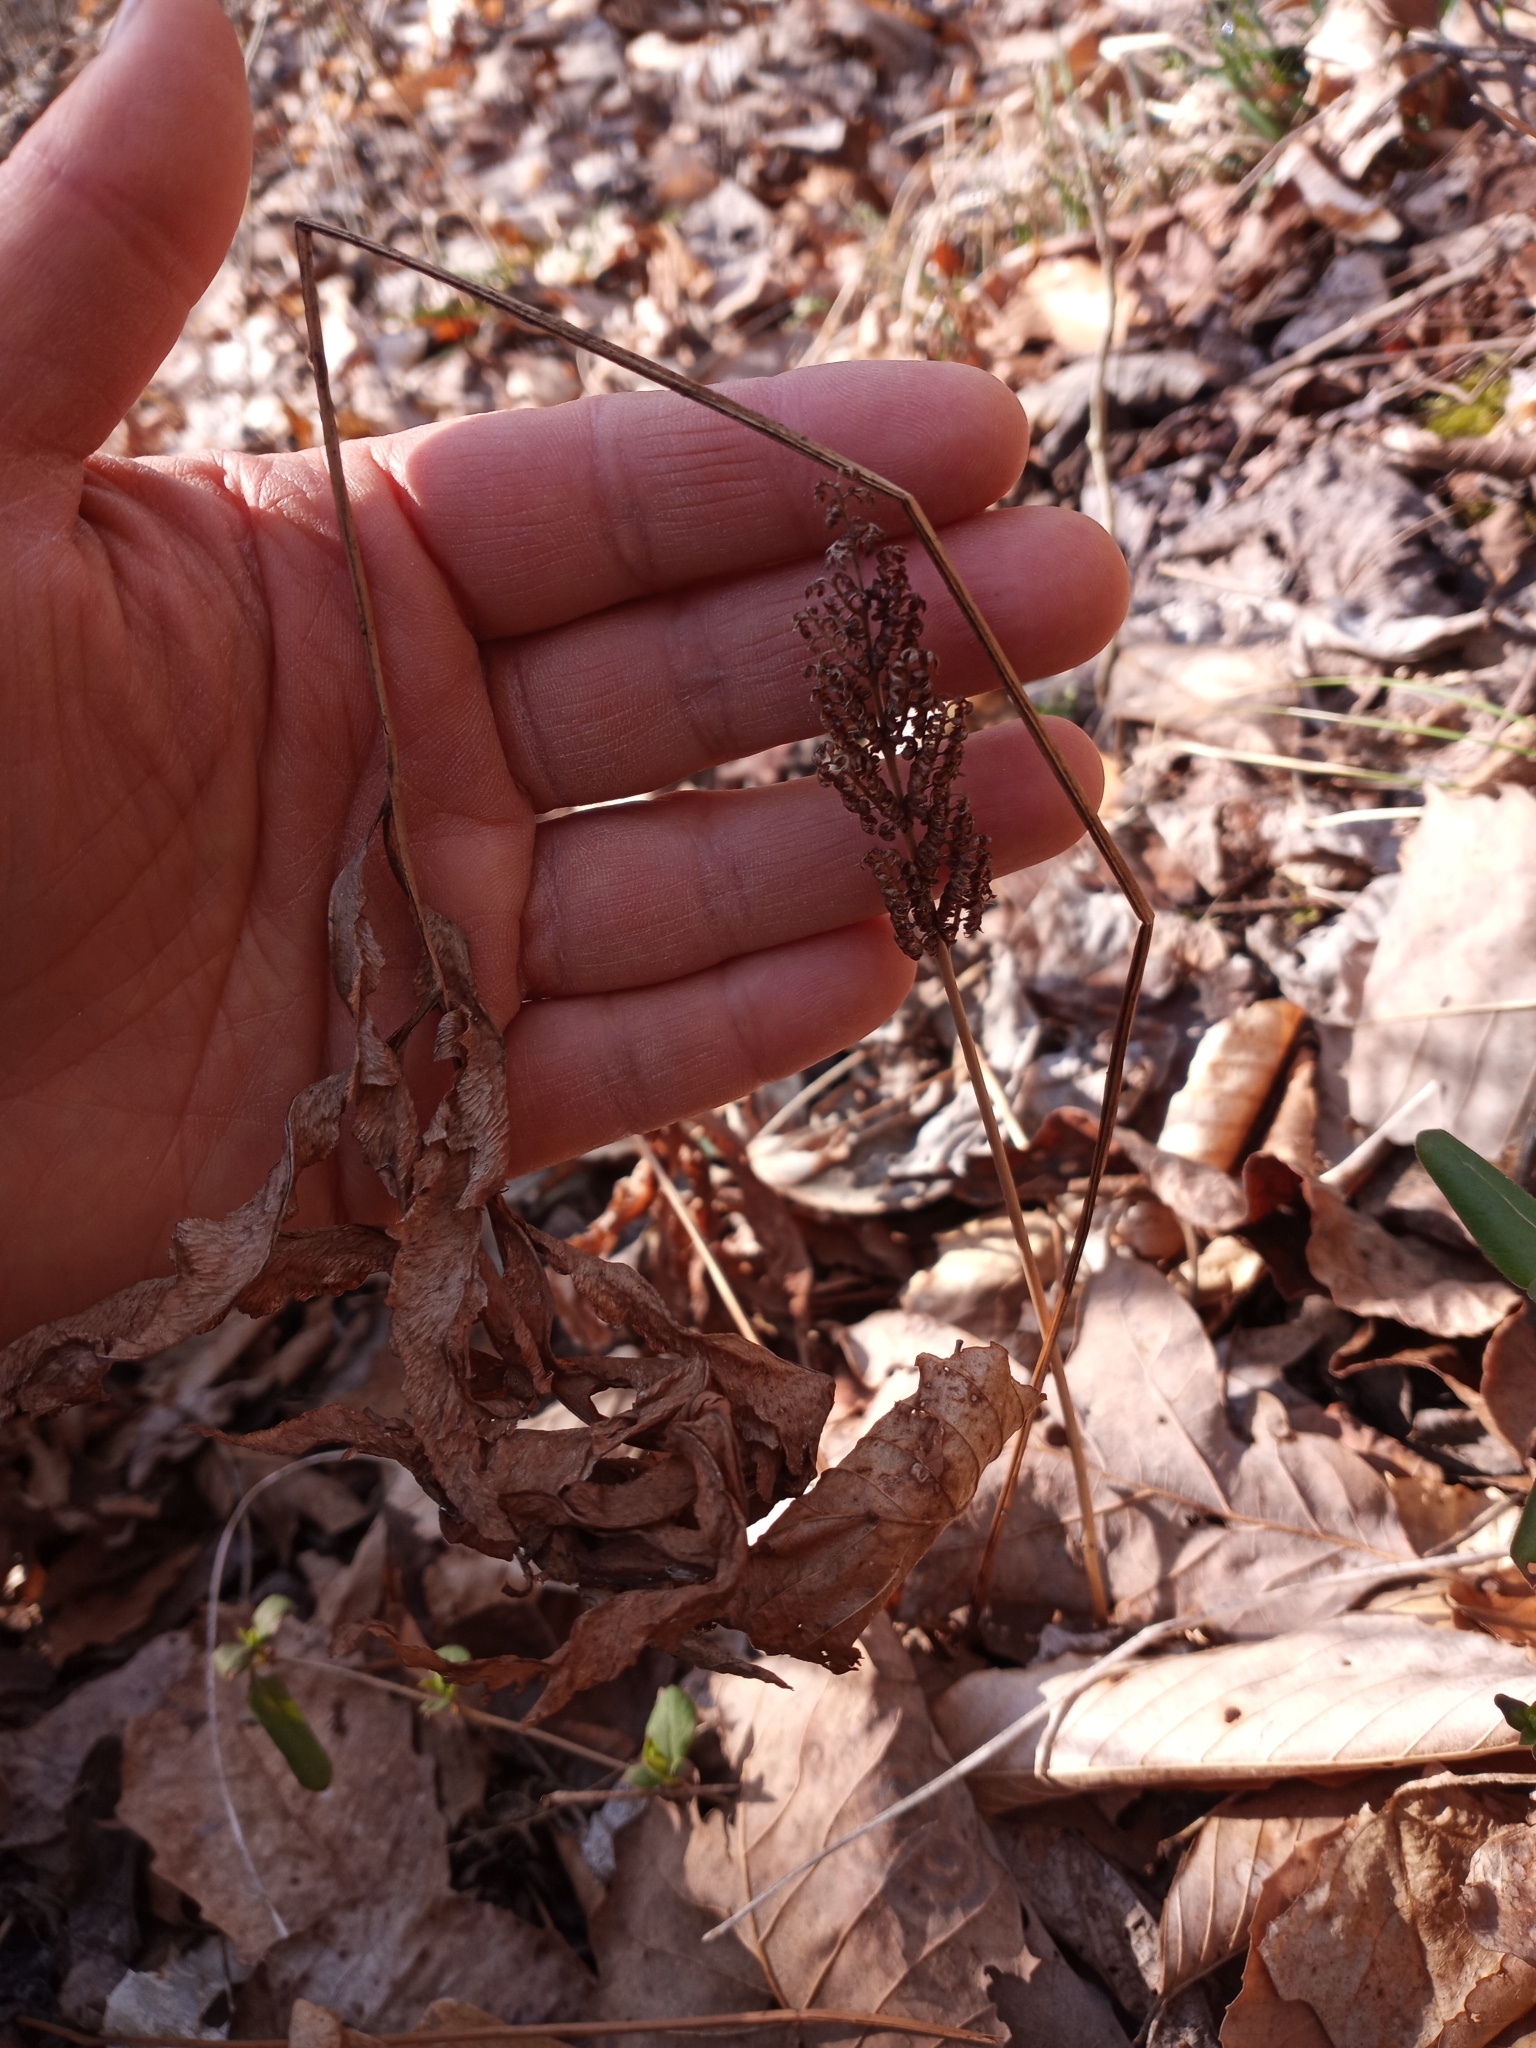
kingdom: Plantae
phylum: Tracheophyta
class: Polypodiopsida
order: Polypodiales
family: Onocleaceae
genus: Onoclea
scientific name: Onoclea sensibilis
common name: Sensitive fern
